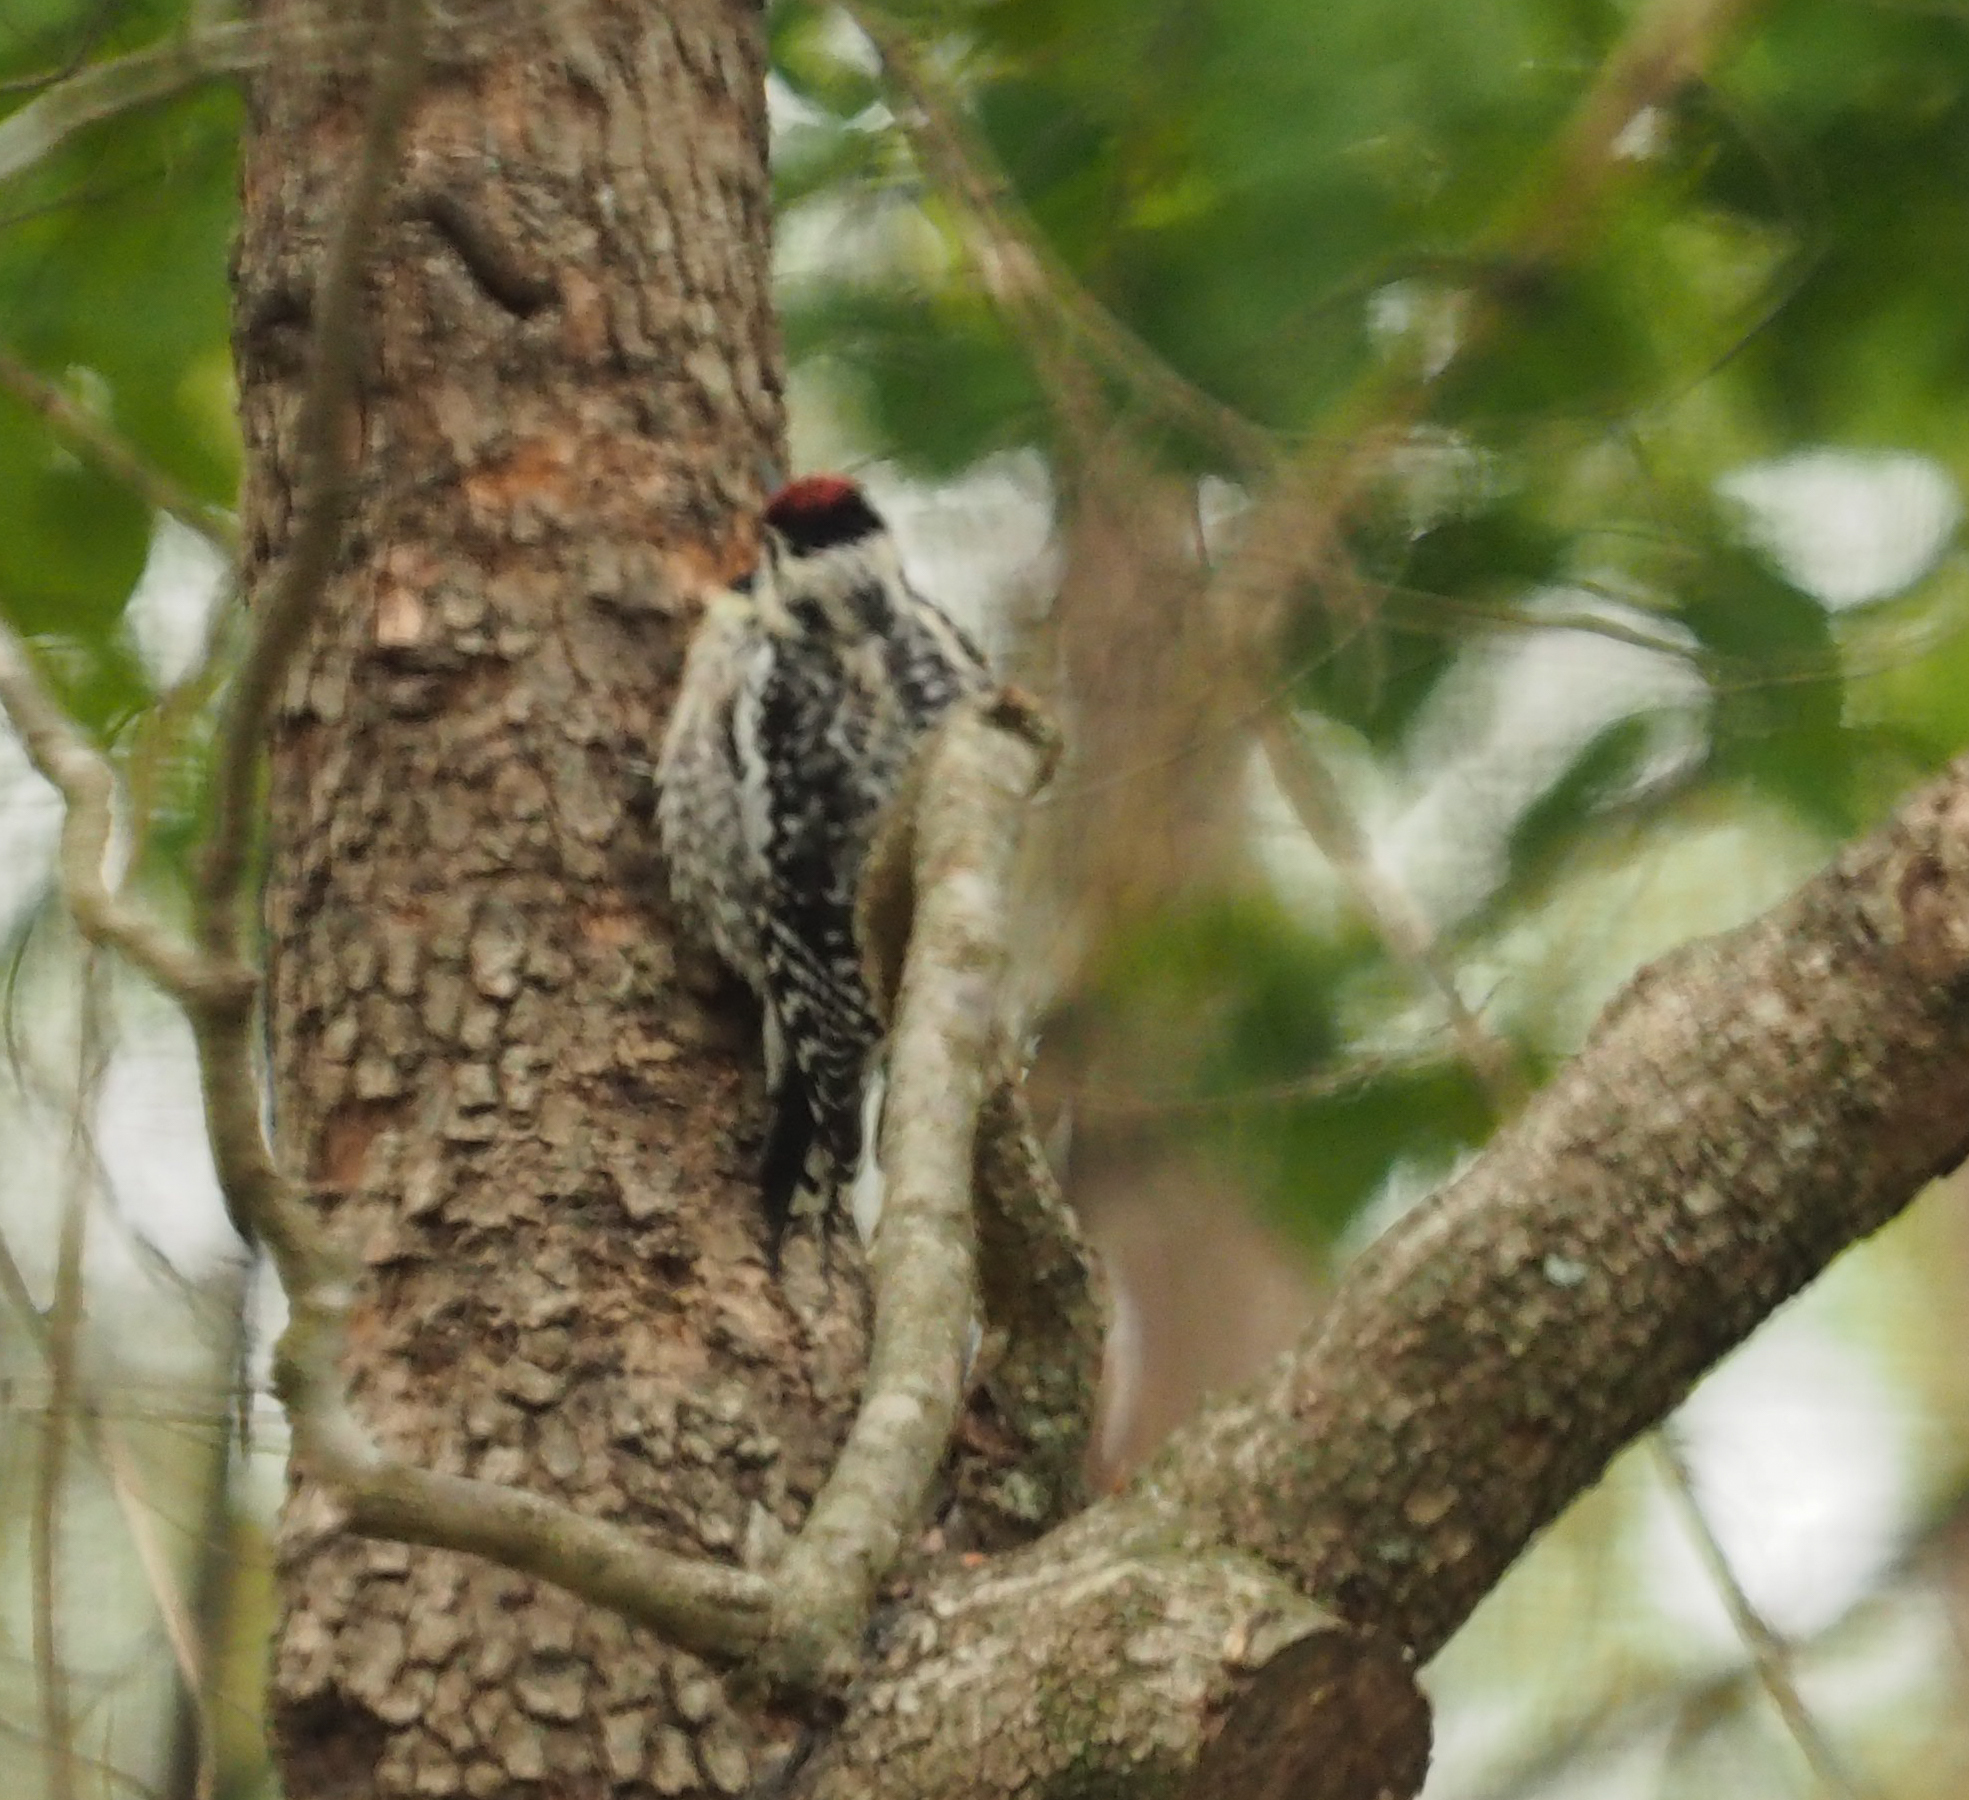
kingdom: Animalia
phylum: Chordata
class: Aves
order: Piciformes
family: Picidae
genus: Sphyrapicus
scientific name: Sphyrapicus varius
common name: Yellow-bellied sapsucker
